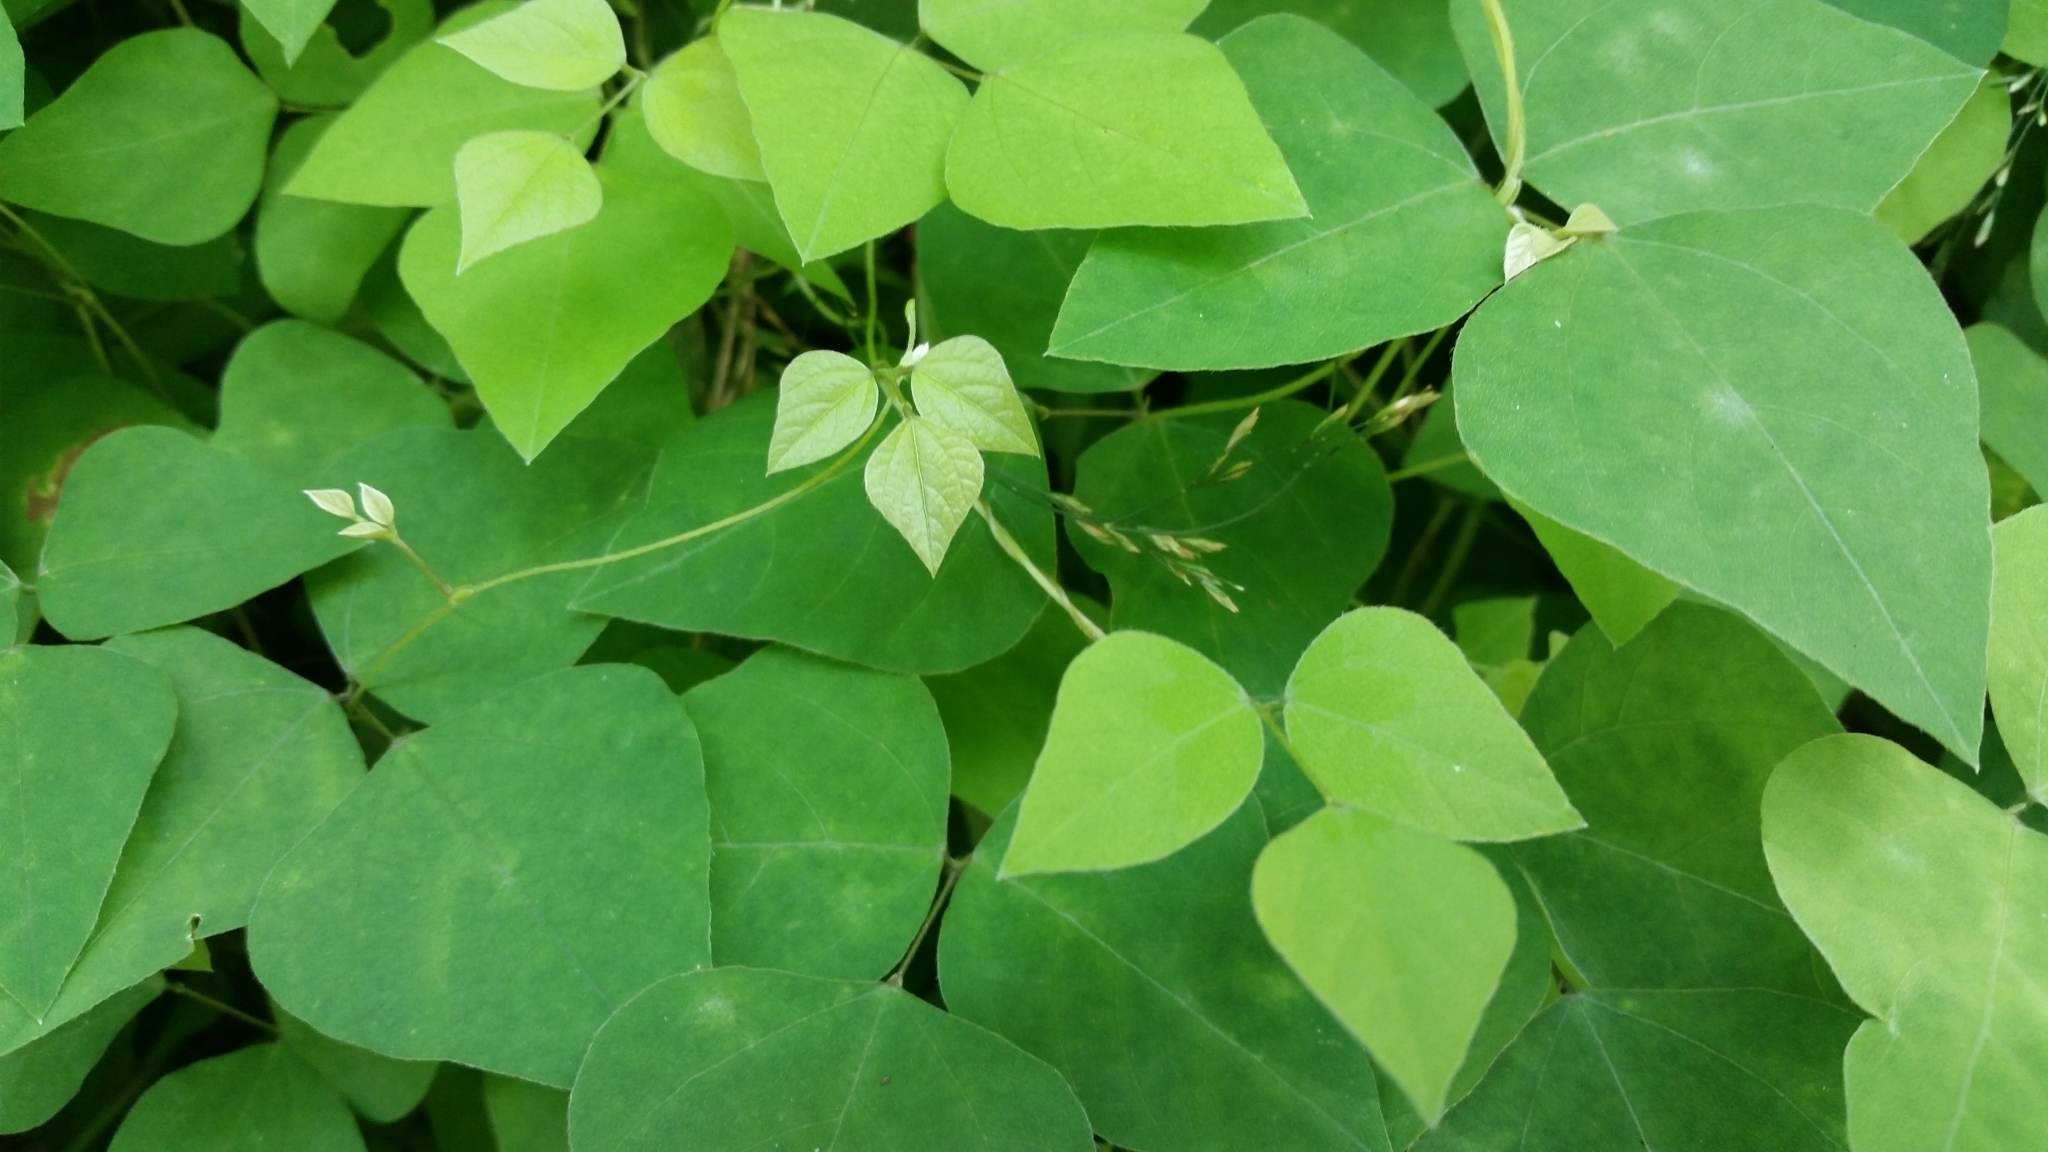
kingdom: Plantae
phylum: Tracheophyta
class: Magnoliopsida
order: Fabales
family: Fabaceae
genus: Amphicarpaea
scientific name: Amphicarpaea bracteata
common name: American hog peanut
